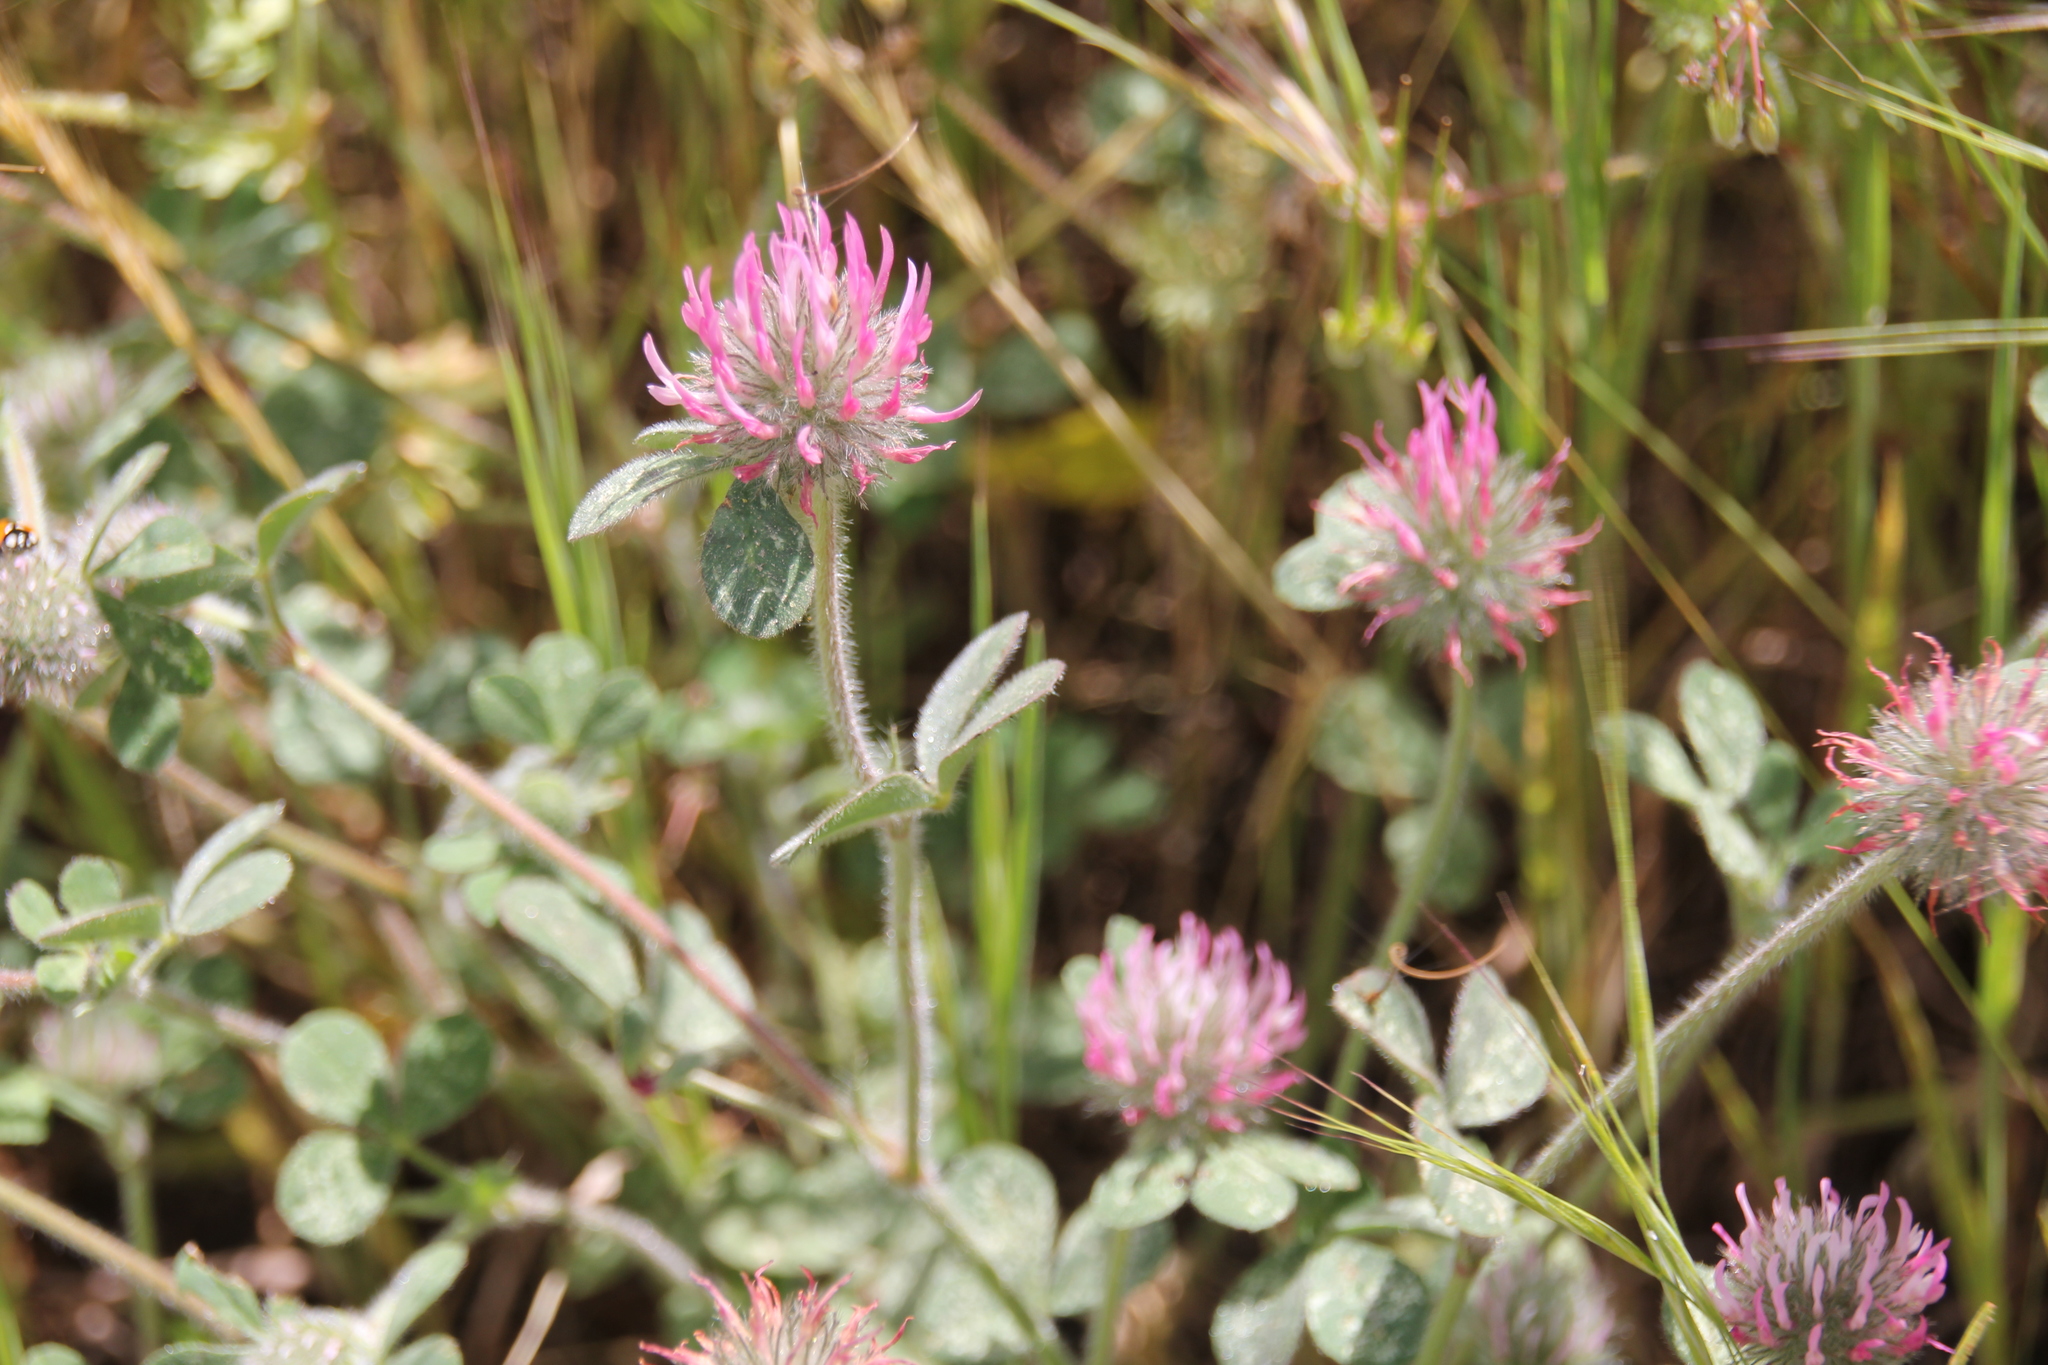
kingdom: Plantae
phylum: Tracheophyta
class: Magnoliopsida
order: Fabales
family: Fabaceae
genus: Trifolium
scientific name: Trifolium hirtum
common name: Rose clover
